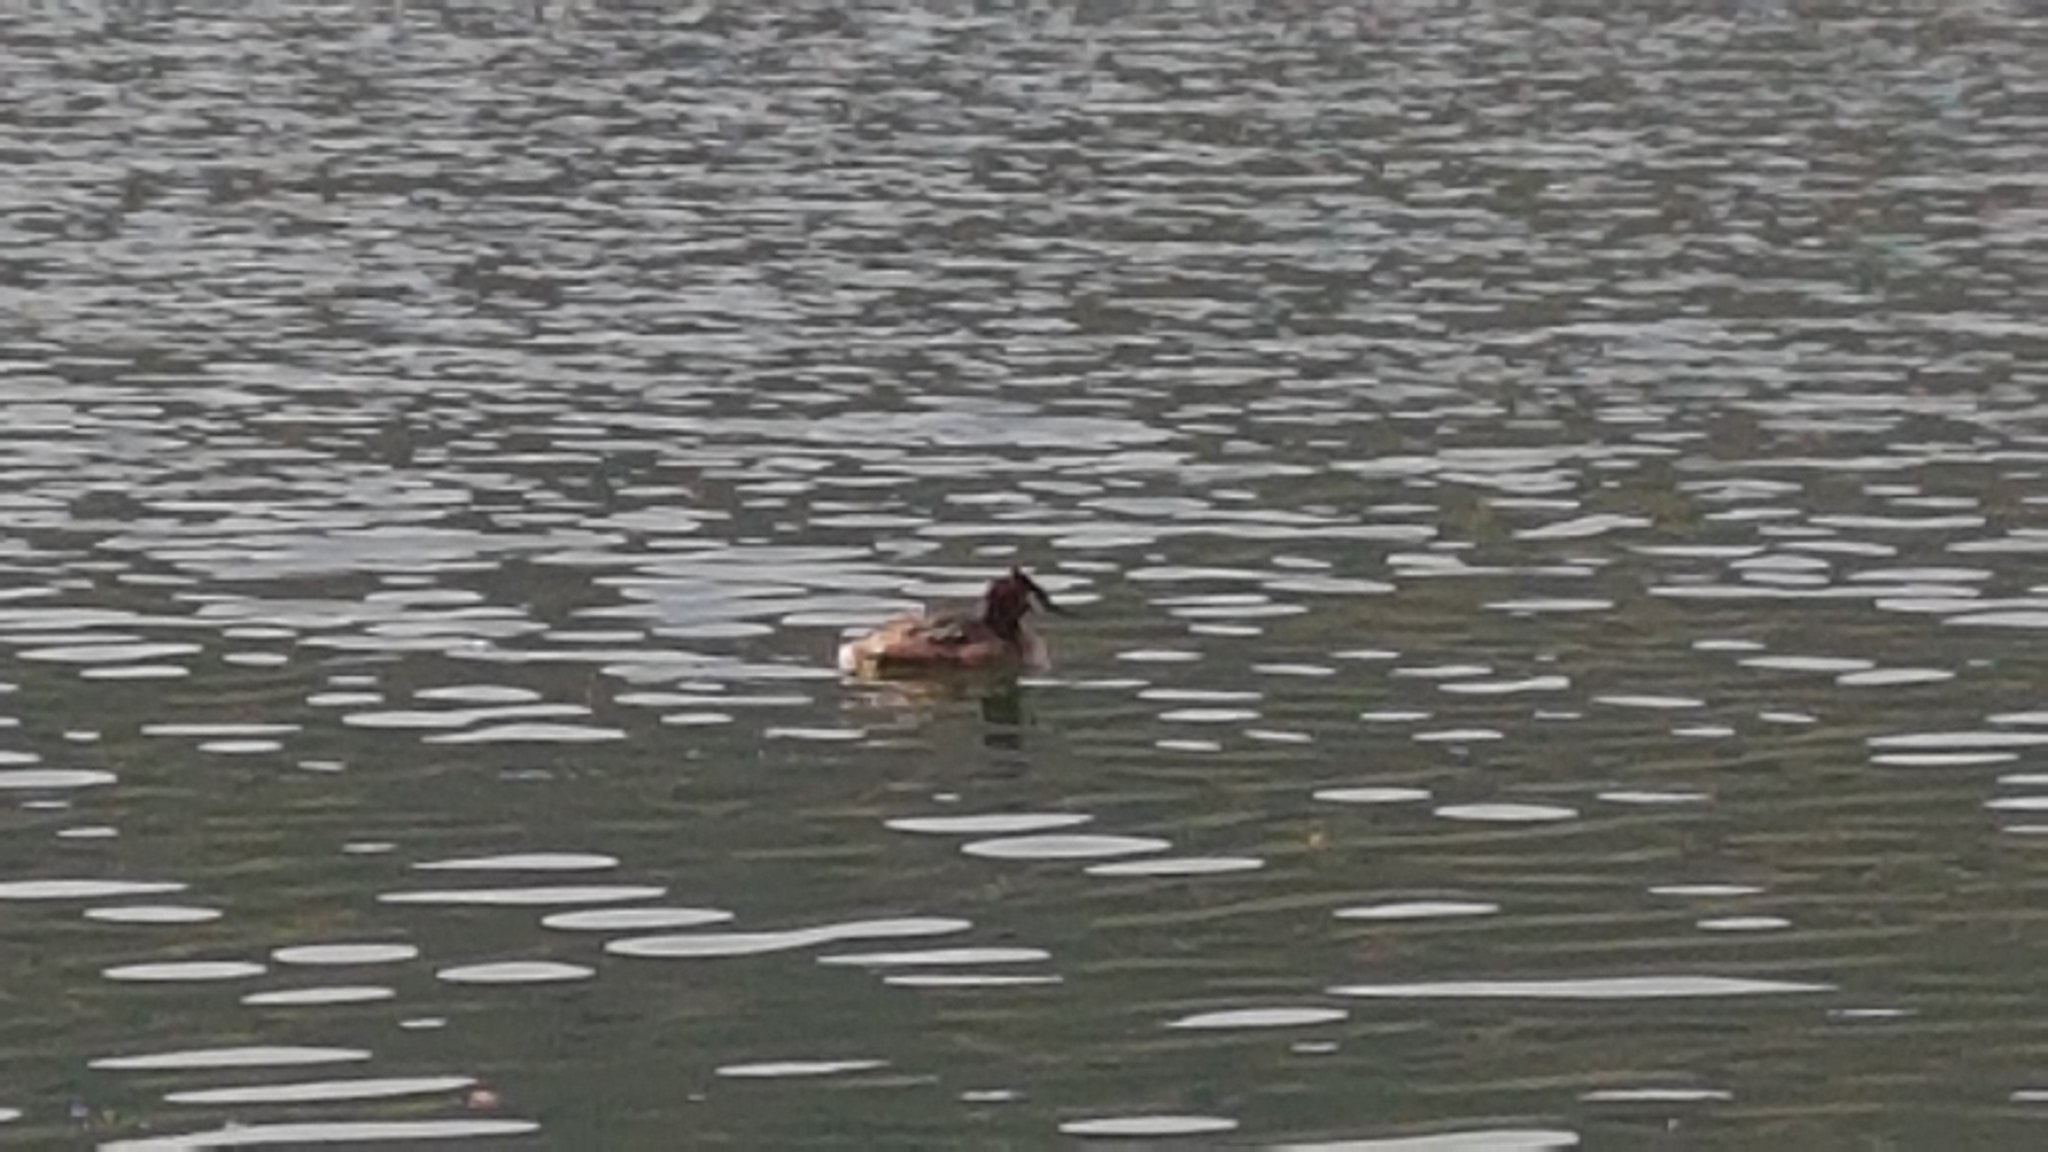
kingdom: Animalia
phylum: Chordata
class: Aves
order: Podicipediformes
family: Podicipedidae
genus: Podiceps
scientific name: Podiceps cristatus
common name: Great crested grebe
